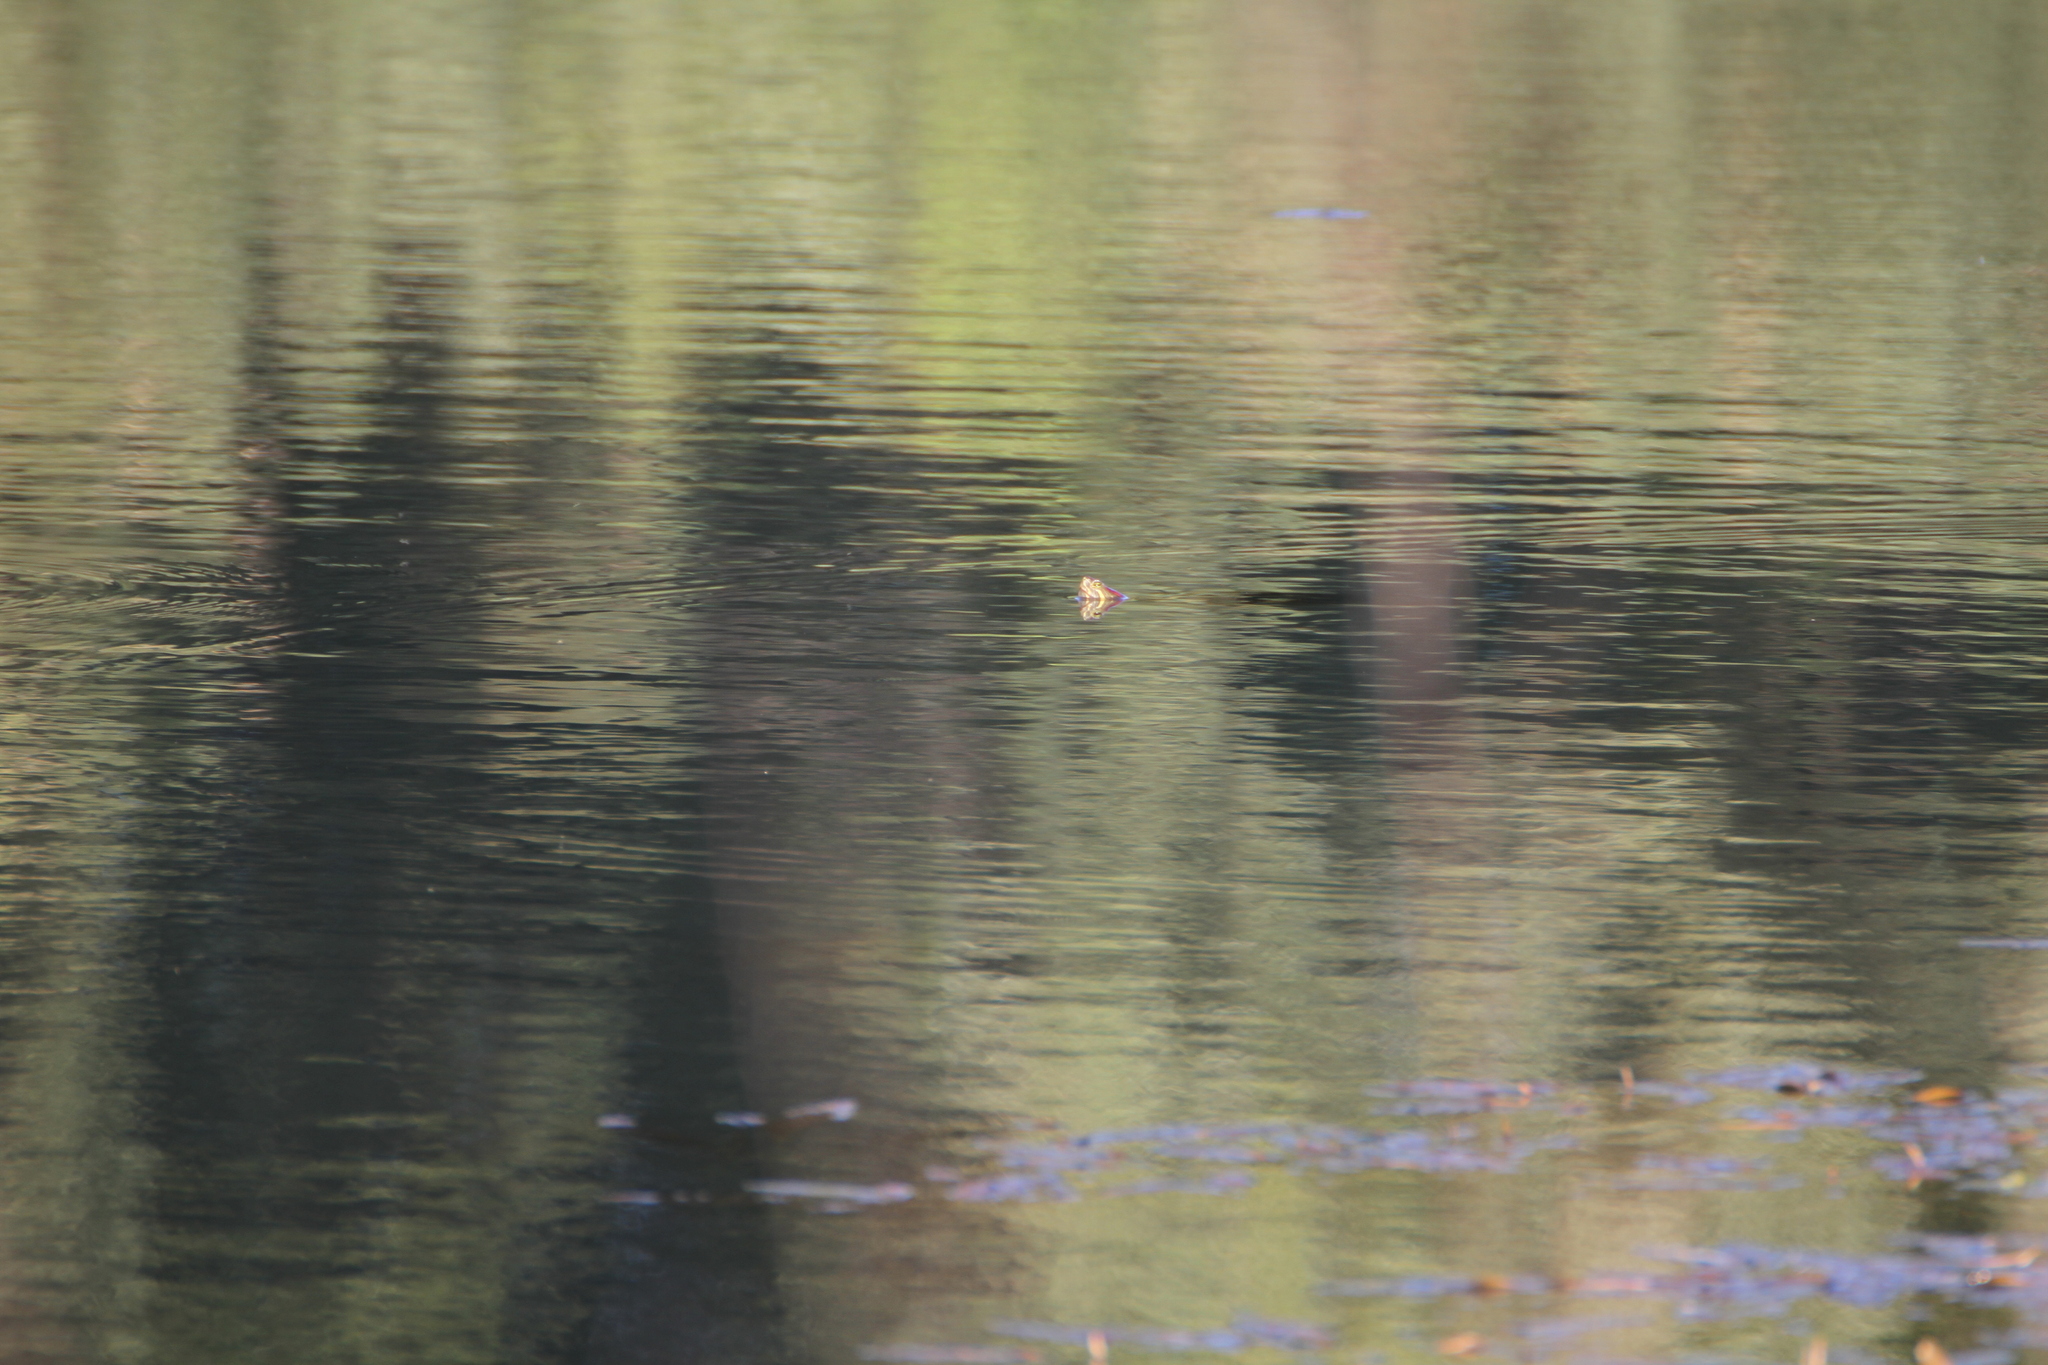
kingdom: Animalia
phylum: Chordata
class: Testudines
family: Emydidae
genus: Trachemys
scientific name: Trachemys scripta
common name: Slider
